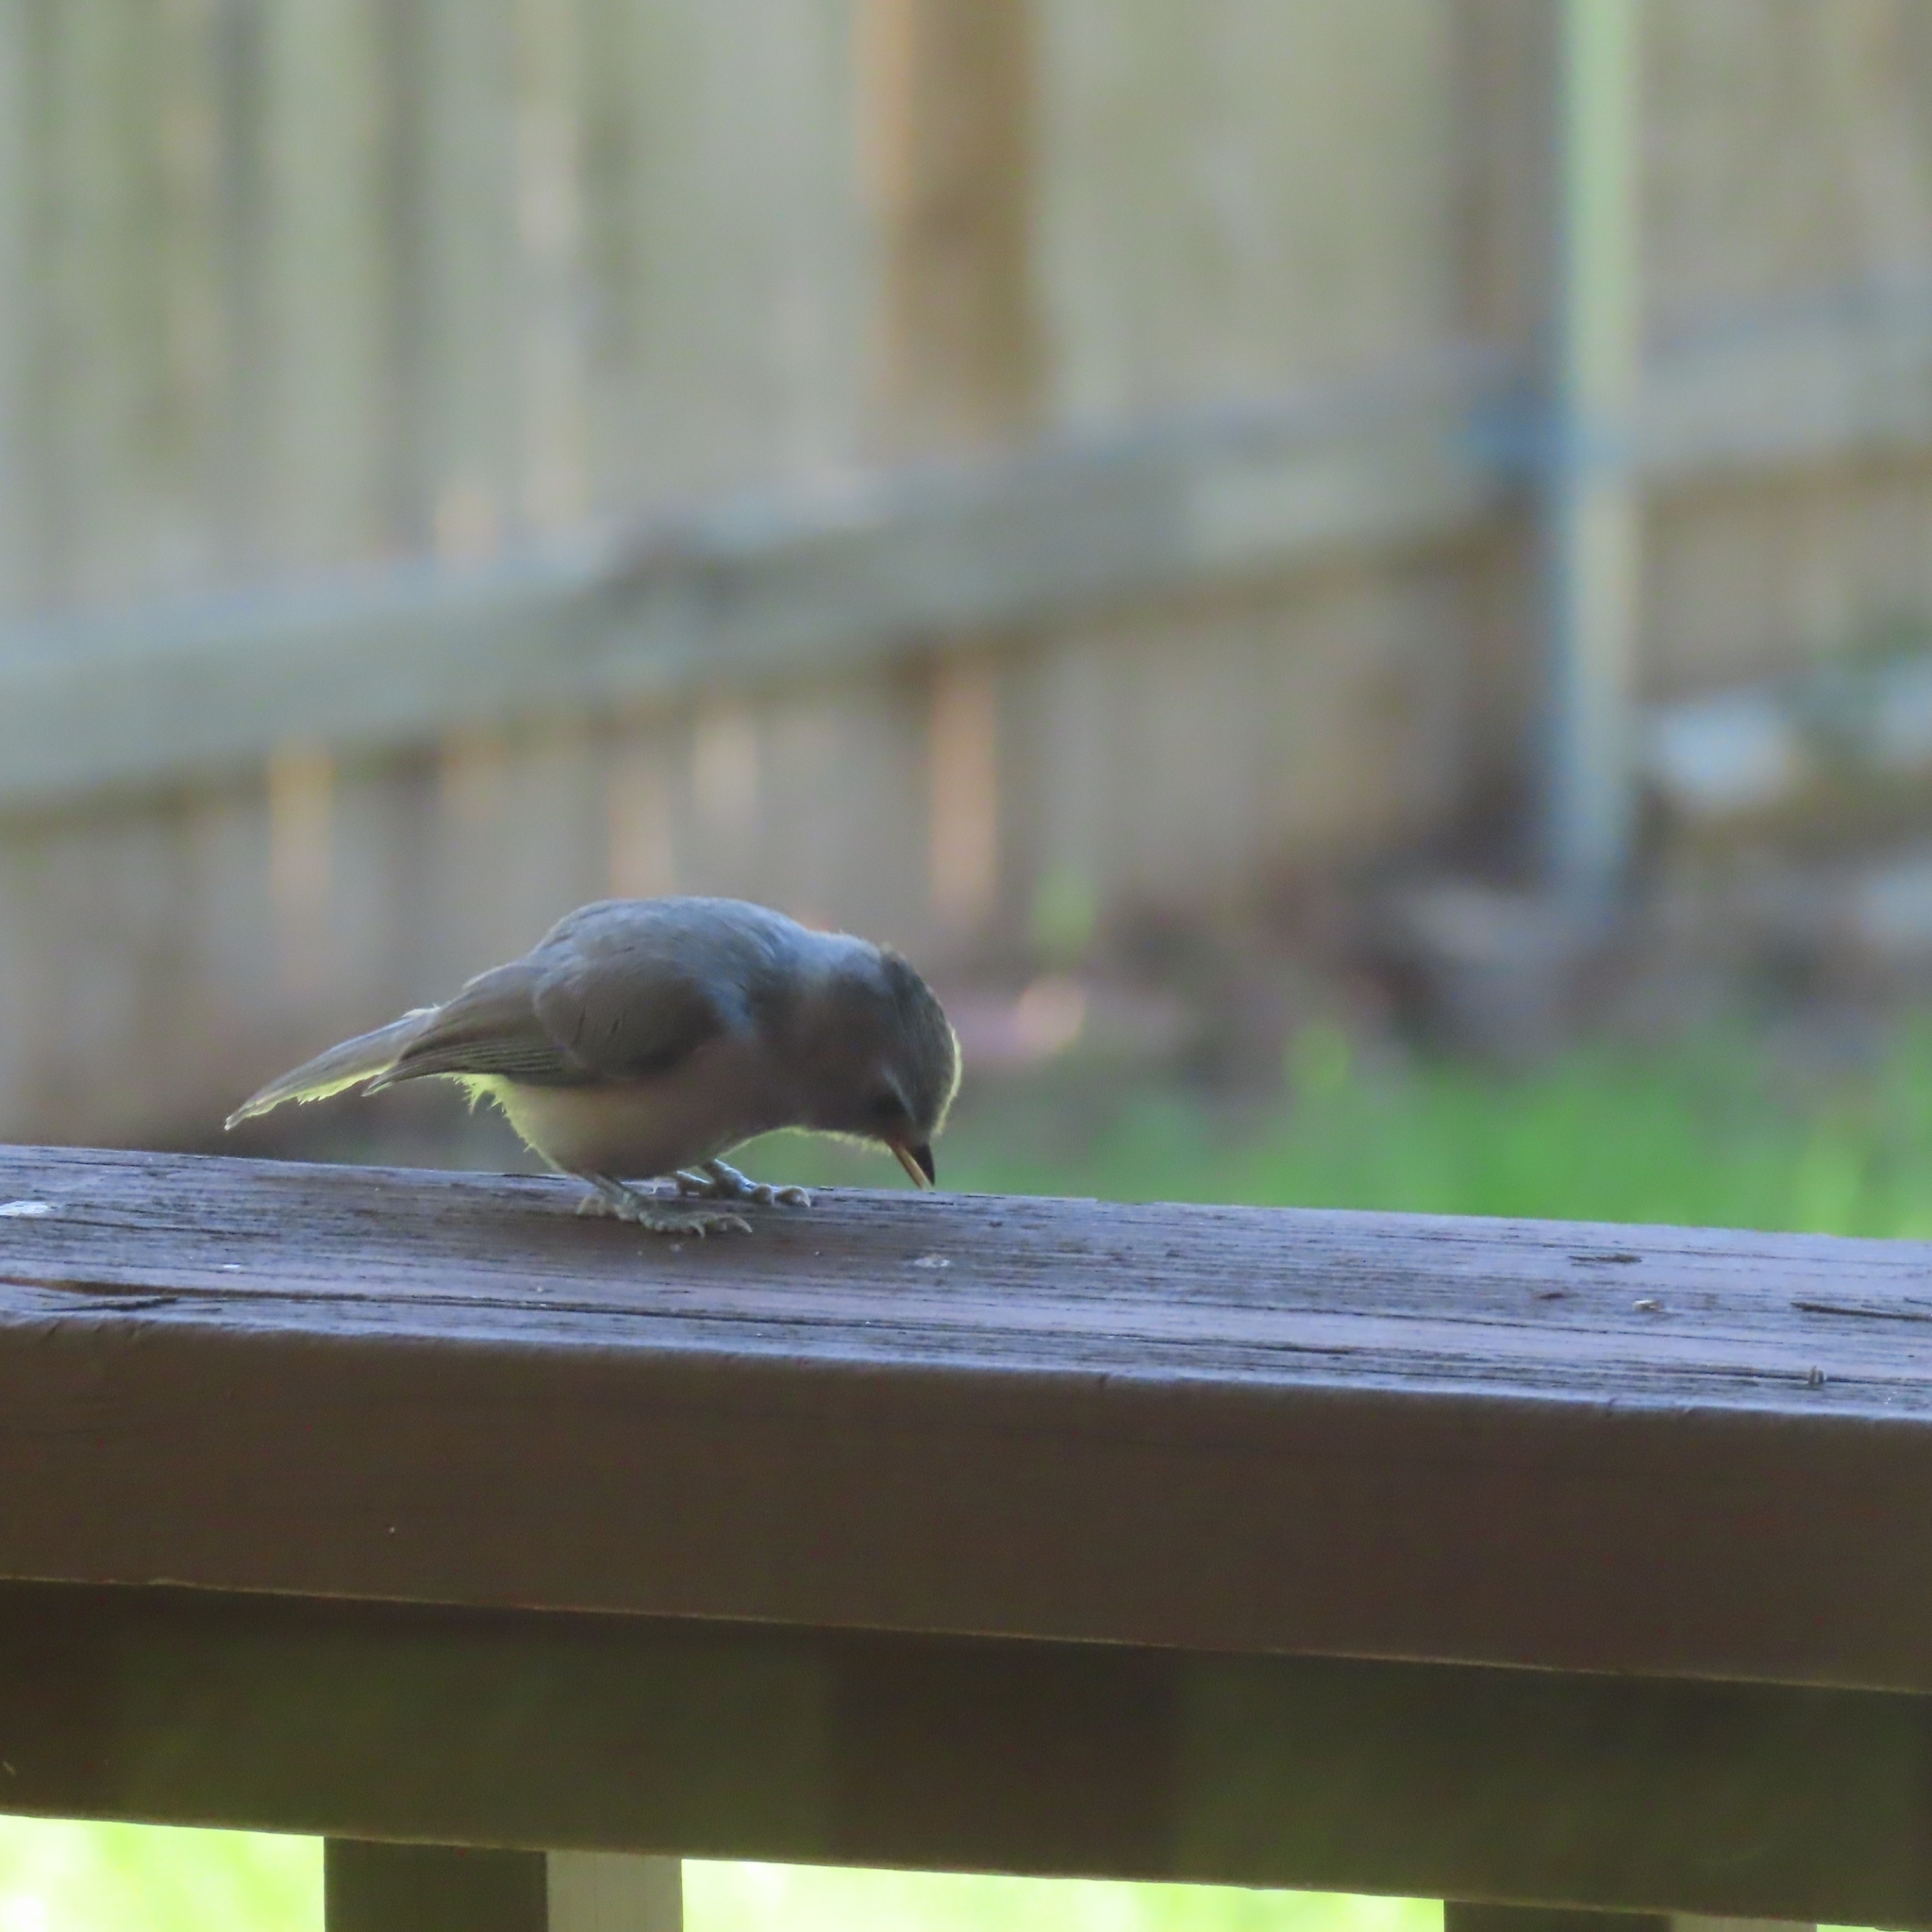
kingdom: Animalia
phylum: Chordata
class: Aves
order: Passeriformes
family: Paridae
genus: Baeolophus
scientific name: Baeolophus atricristatus
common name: Black-crested titmouse
